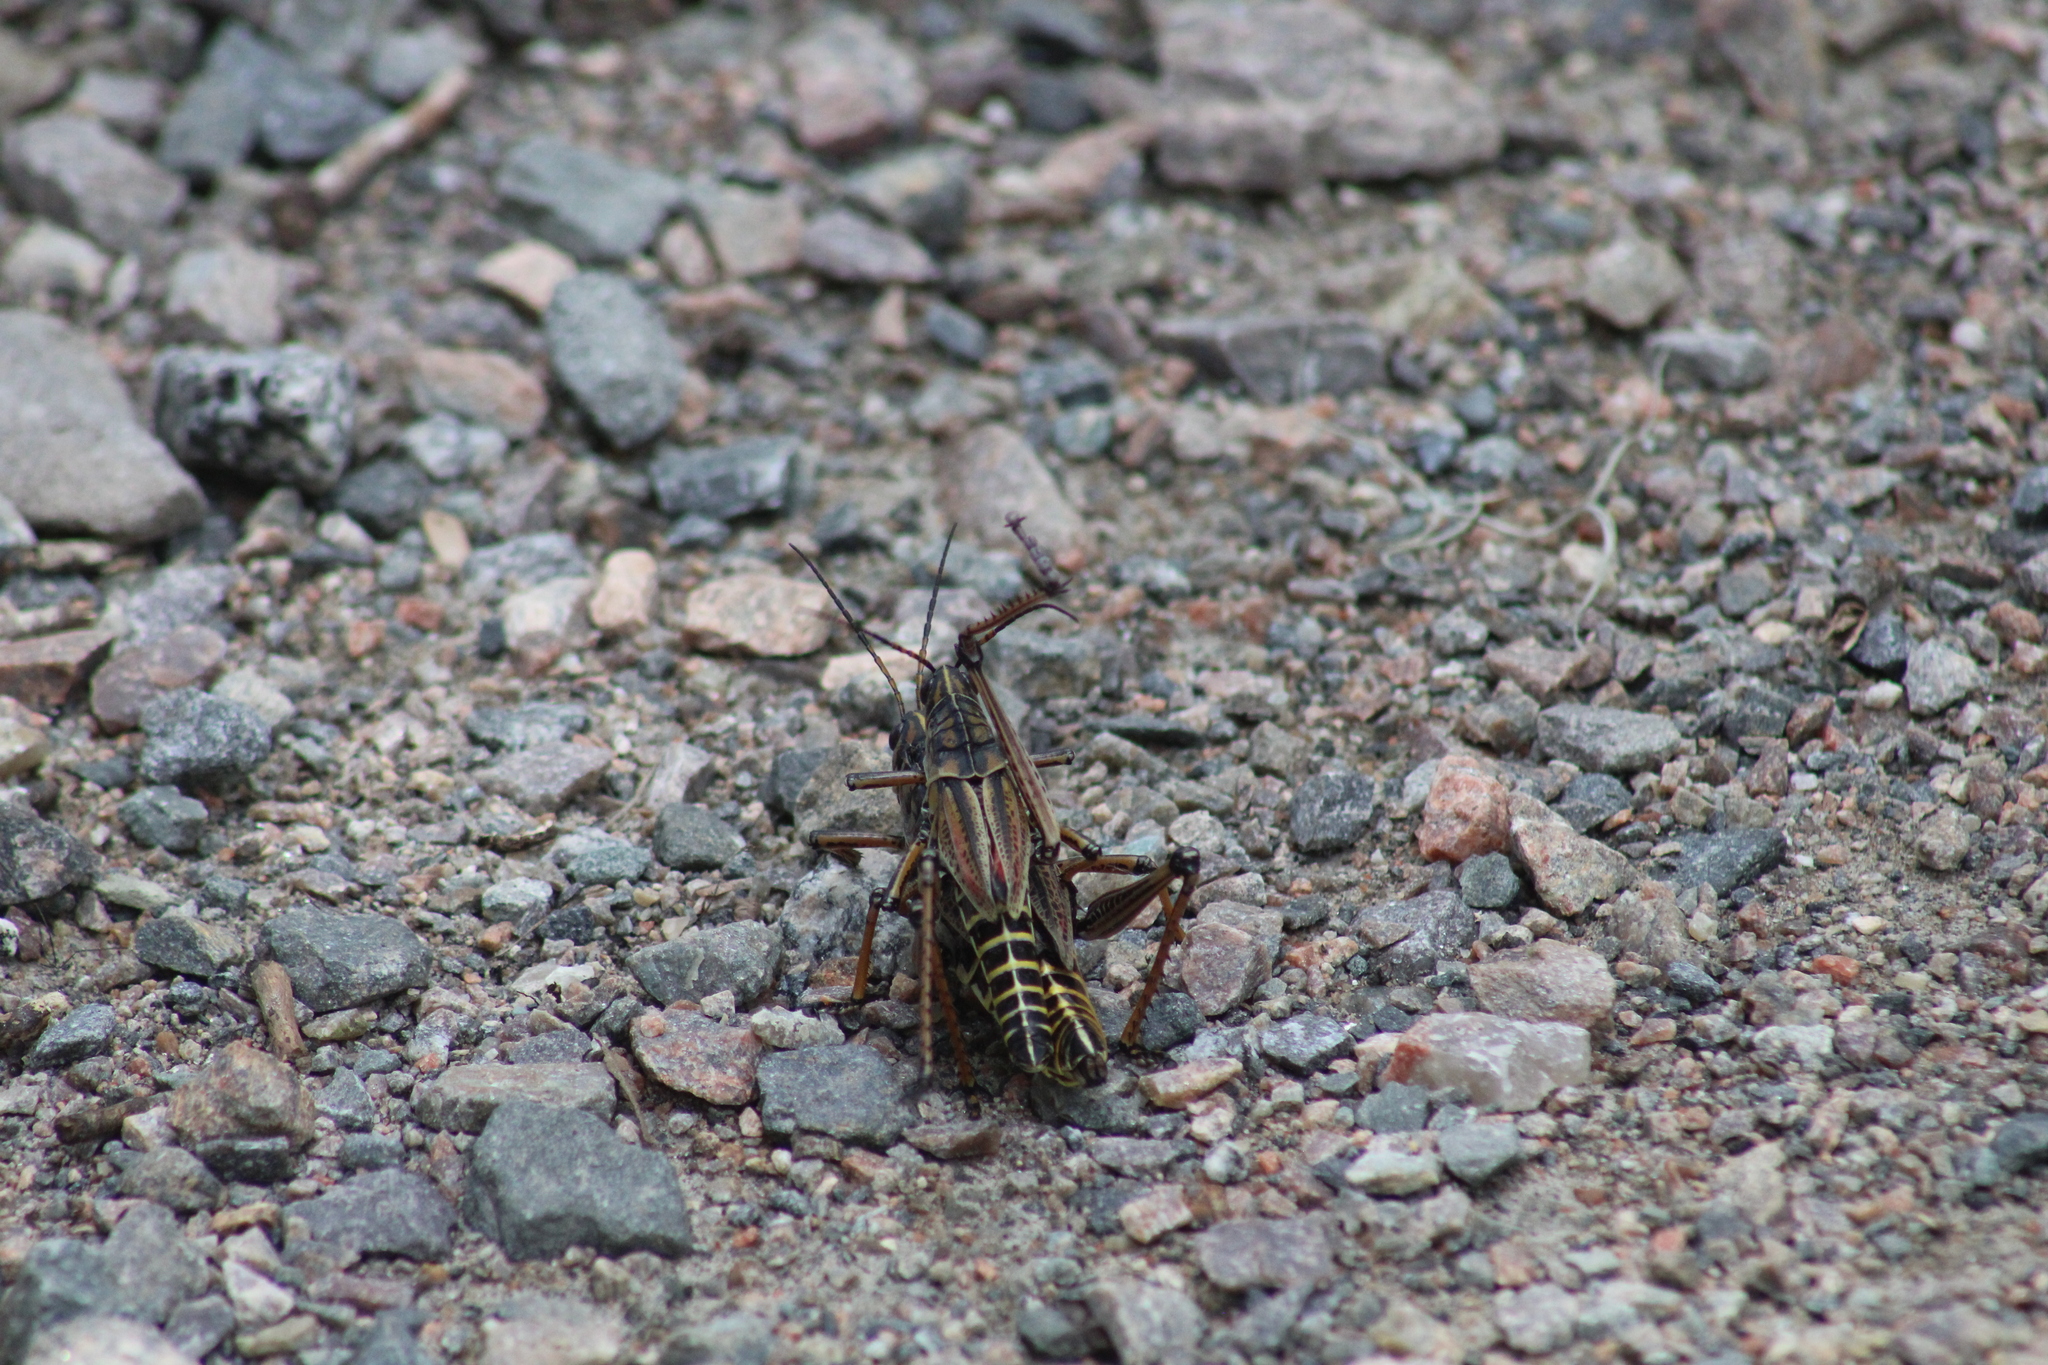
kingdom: Animalia
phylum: Arthropoda
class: Insecta
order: Orthoptera
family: Romaleidae
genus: Romalea
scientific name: Romalea microptera
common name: Eastern lubber grasshopper
